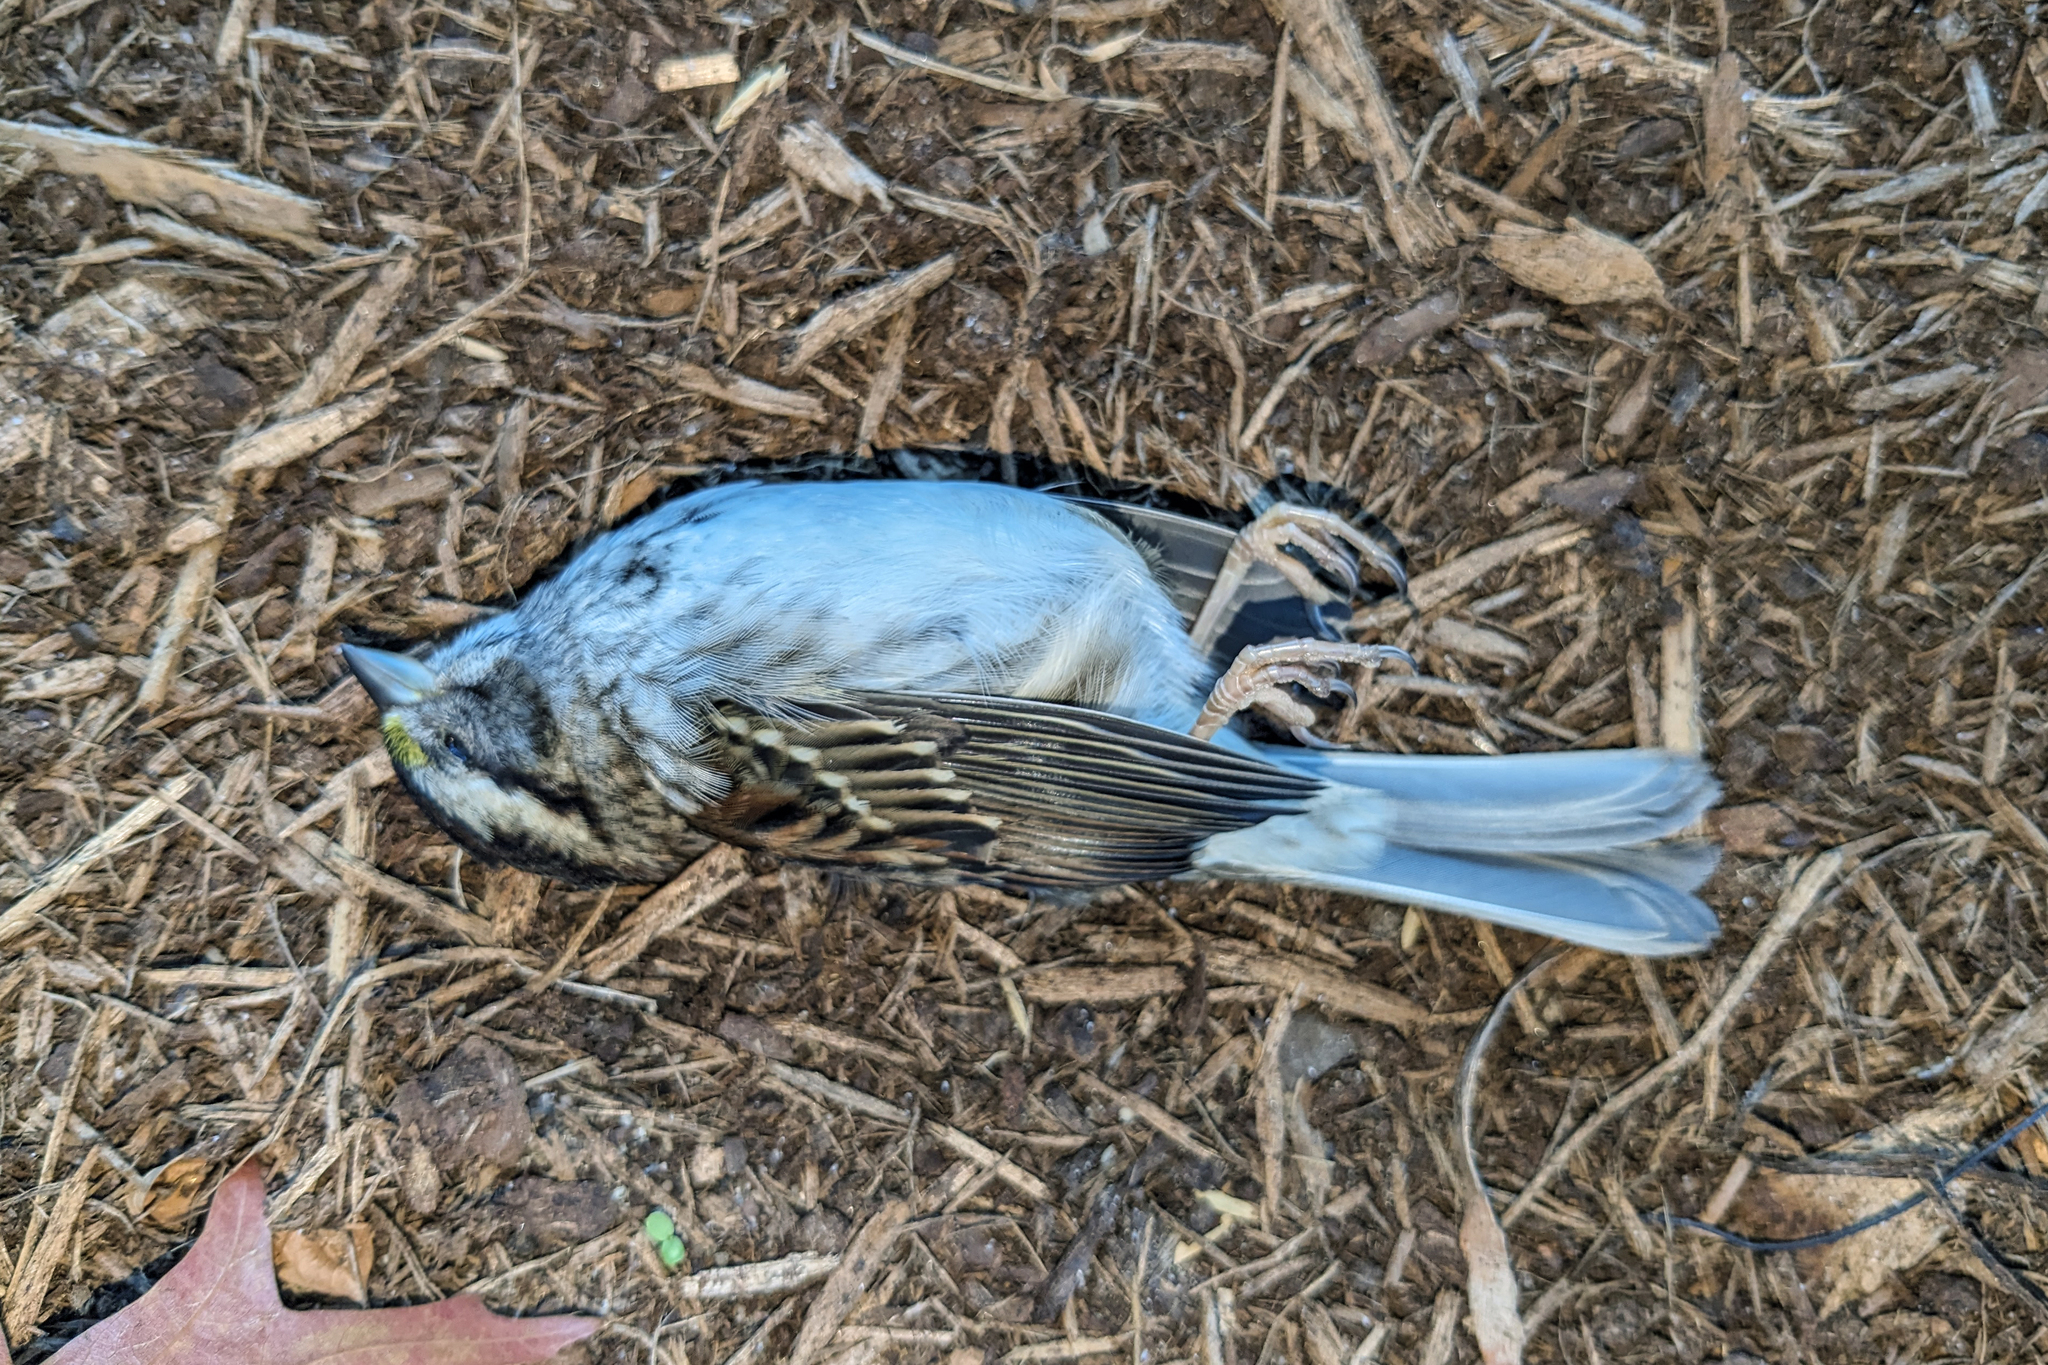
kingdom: Animalia
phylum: Chordata
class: Aves
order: Passeriformes
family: Passerellidae
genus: Zonotrichia
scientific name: Zonotrichia albicollis
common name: White-throated sparrow
